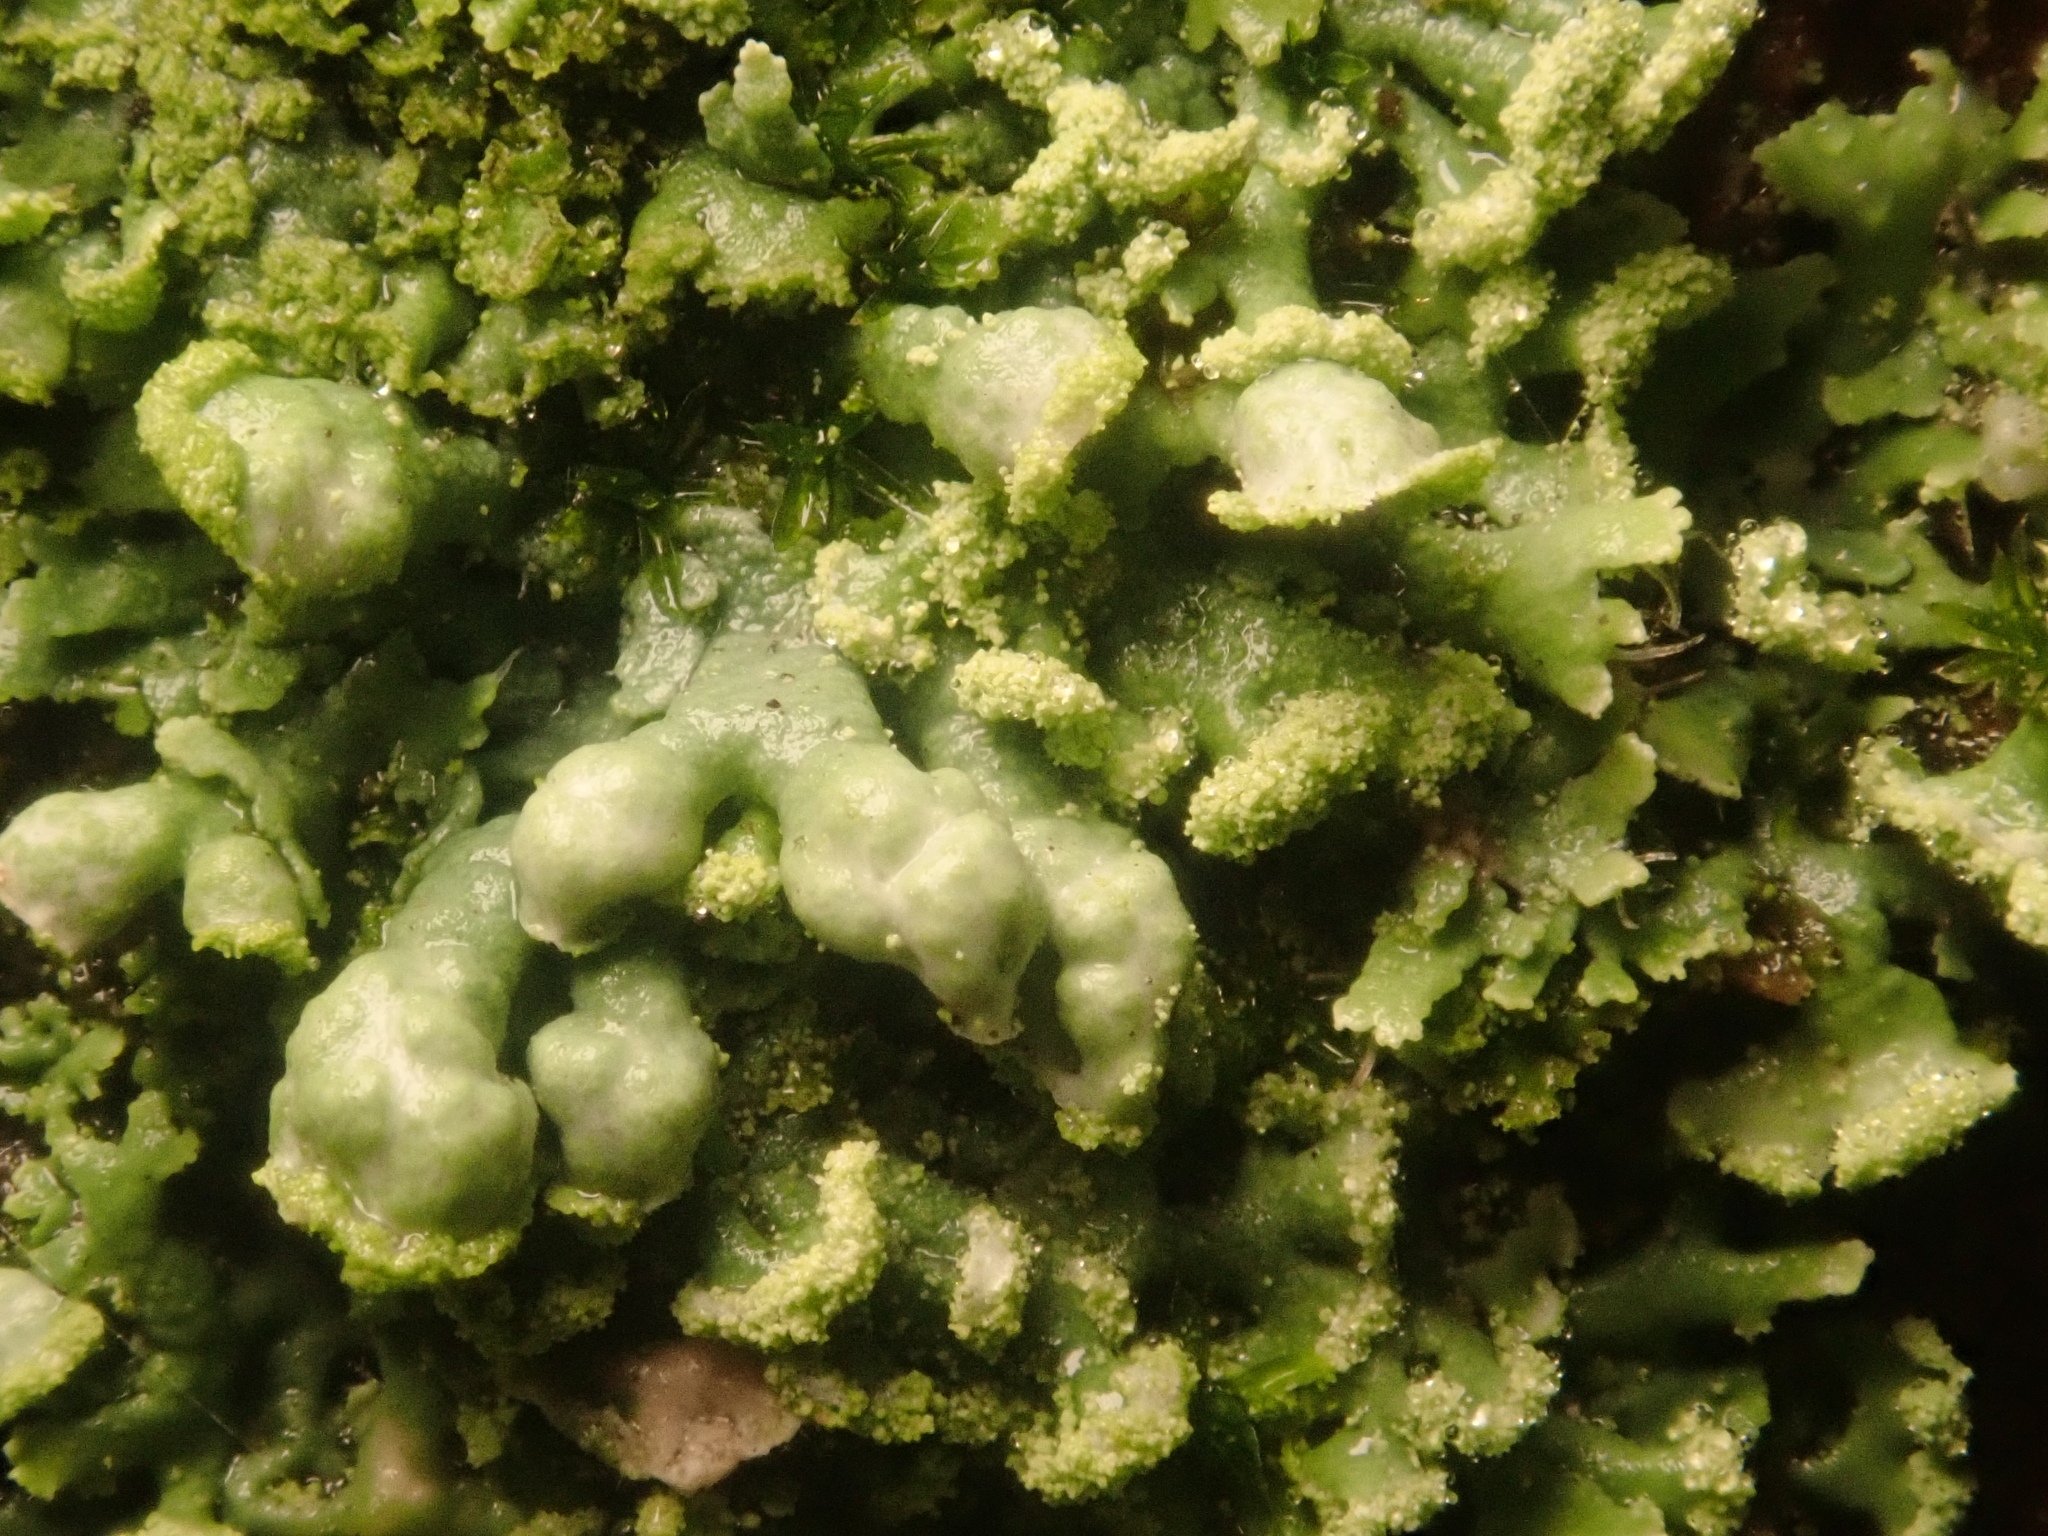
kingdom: Fungi
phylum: Ascomycota
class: Lecanoromycetes
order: Caliciales
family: Physciaceae
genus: Physcia
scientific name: Physcia adscendens
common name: Hooded rosette lichen
